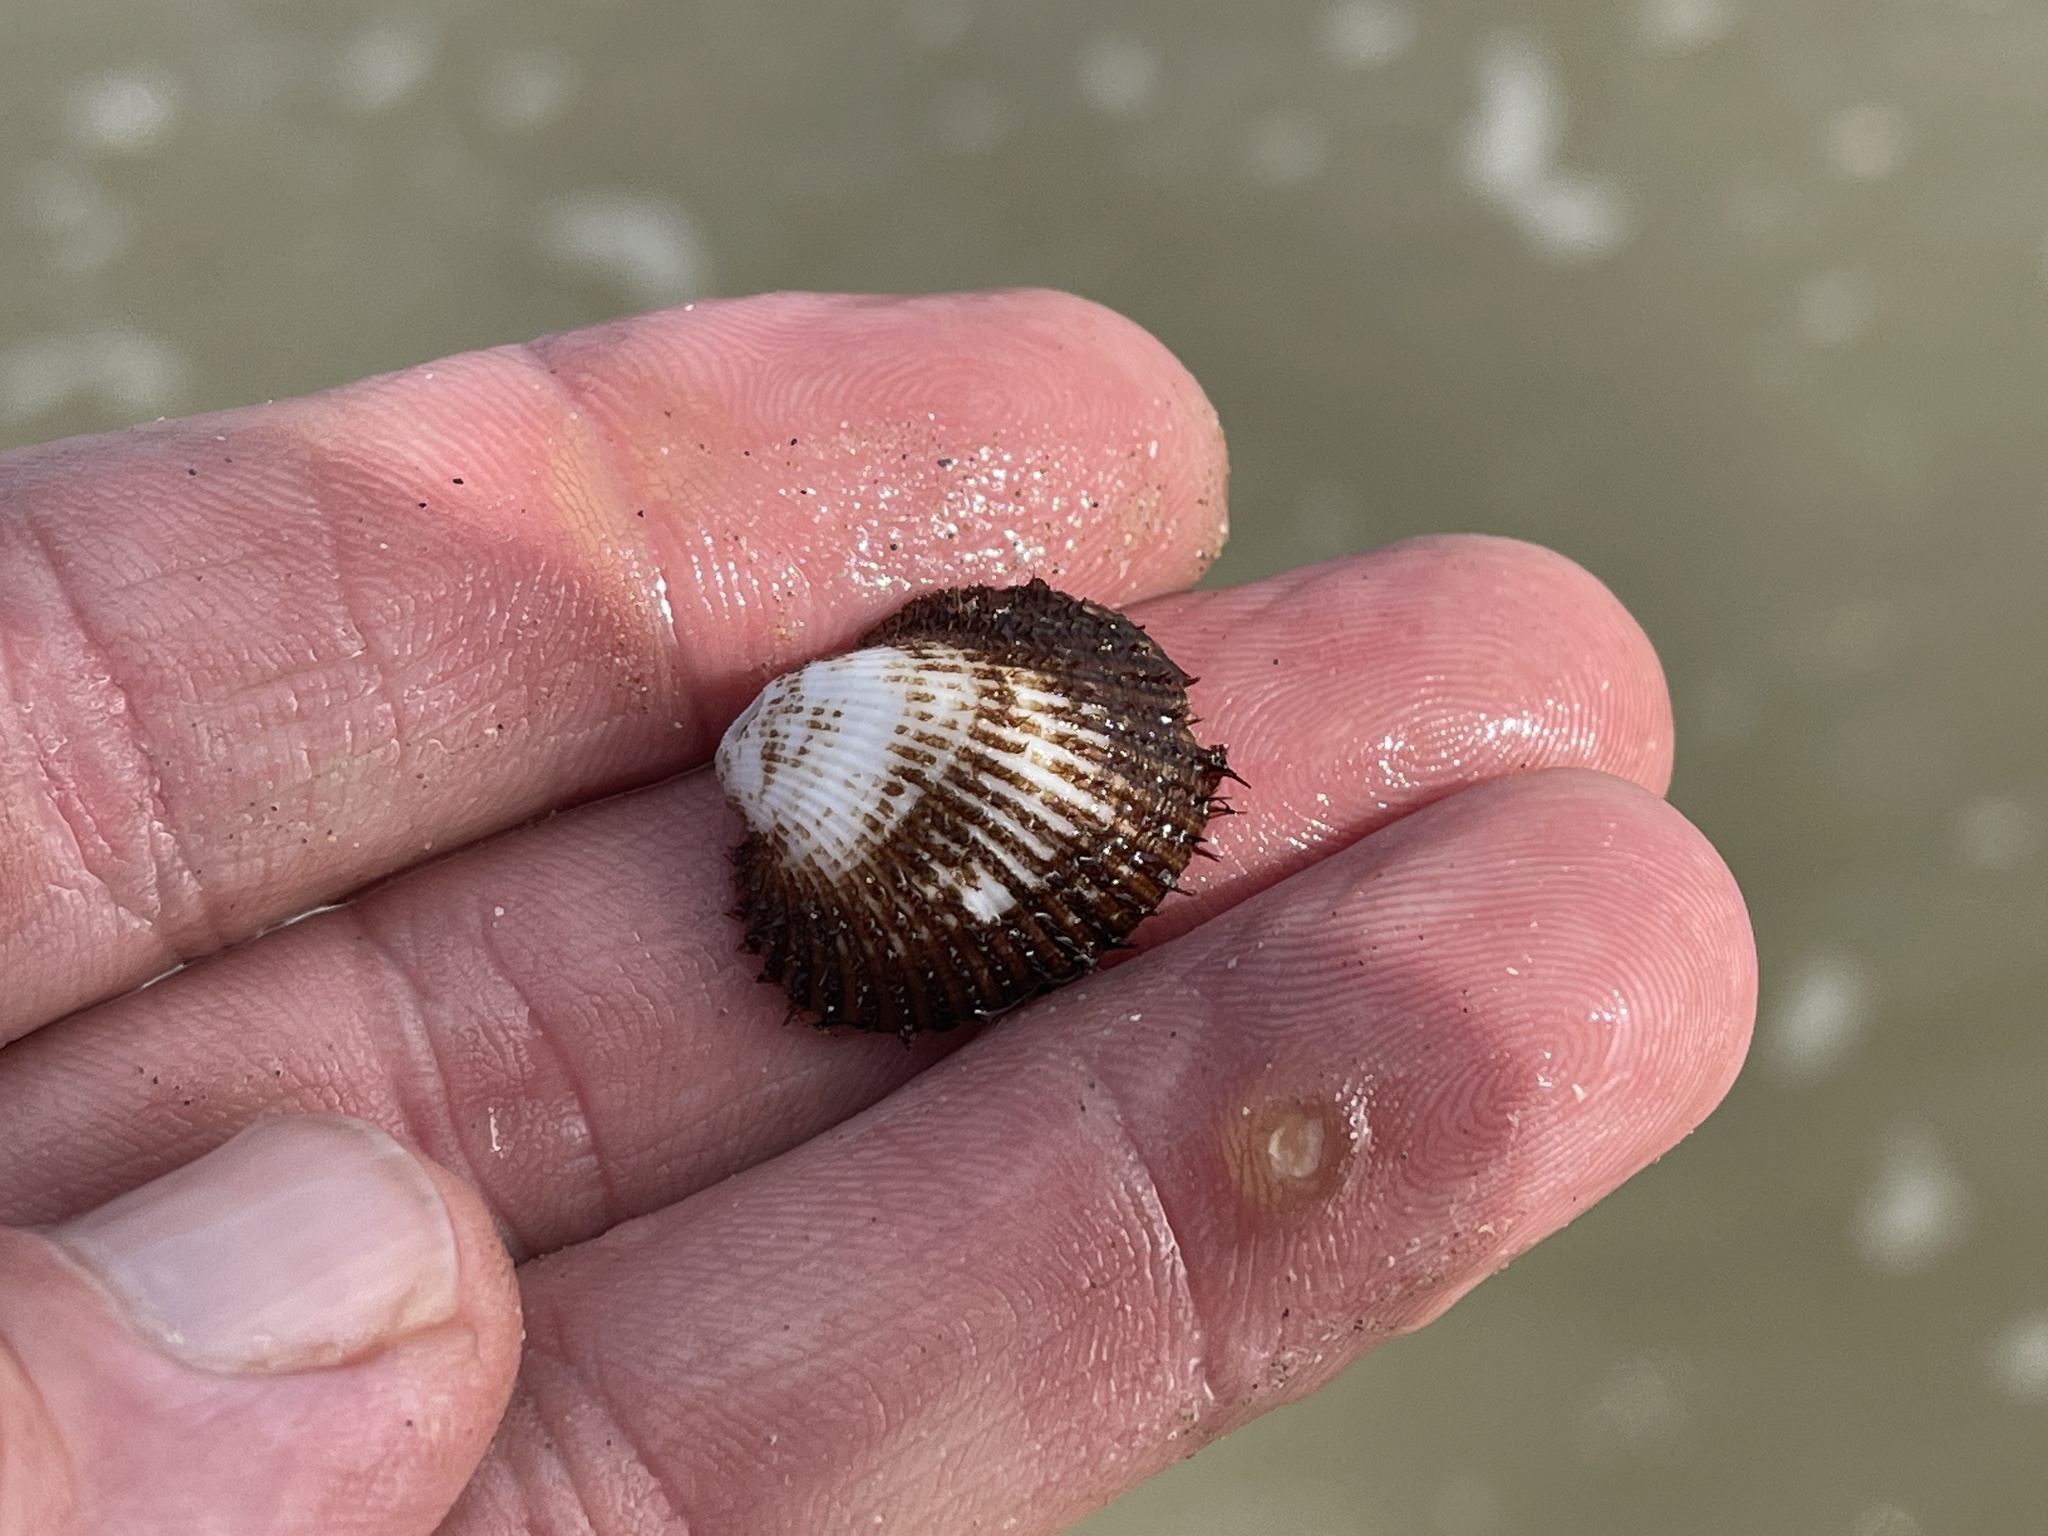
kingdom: Animalia
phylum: Mollusca
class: Bivalvia
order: Arcida
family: Arcidae
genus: Lunarca
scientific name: Lunarca ovalis
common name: Blood ark
